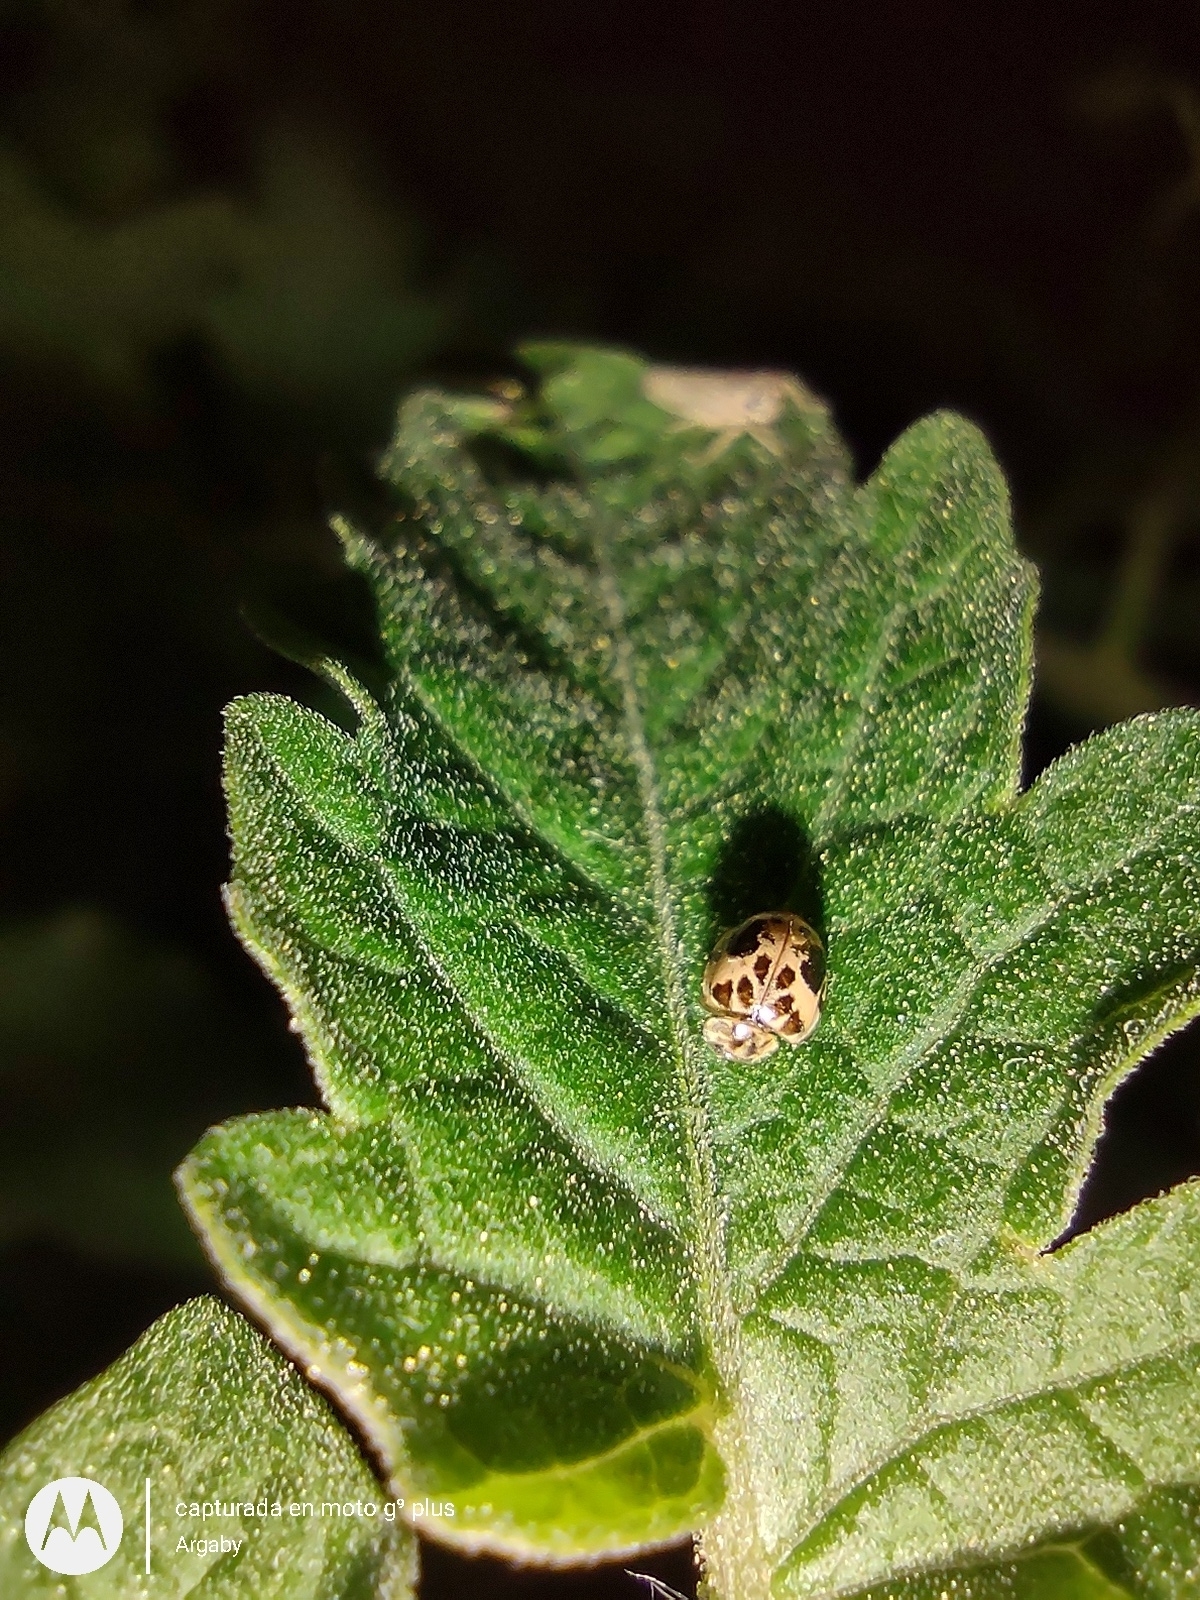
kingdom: Animalia
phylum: Arthropoda
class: Insecta
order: Coleoptera
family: Coccinellidae
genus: Psyllobora
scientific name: Psyllobora
